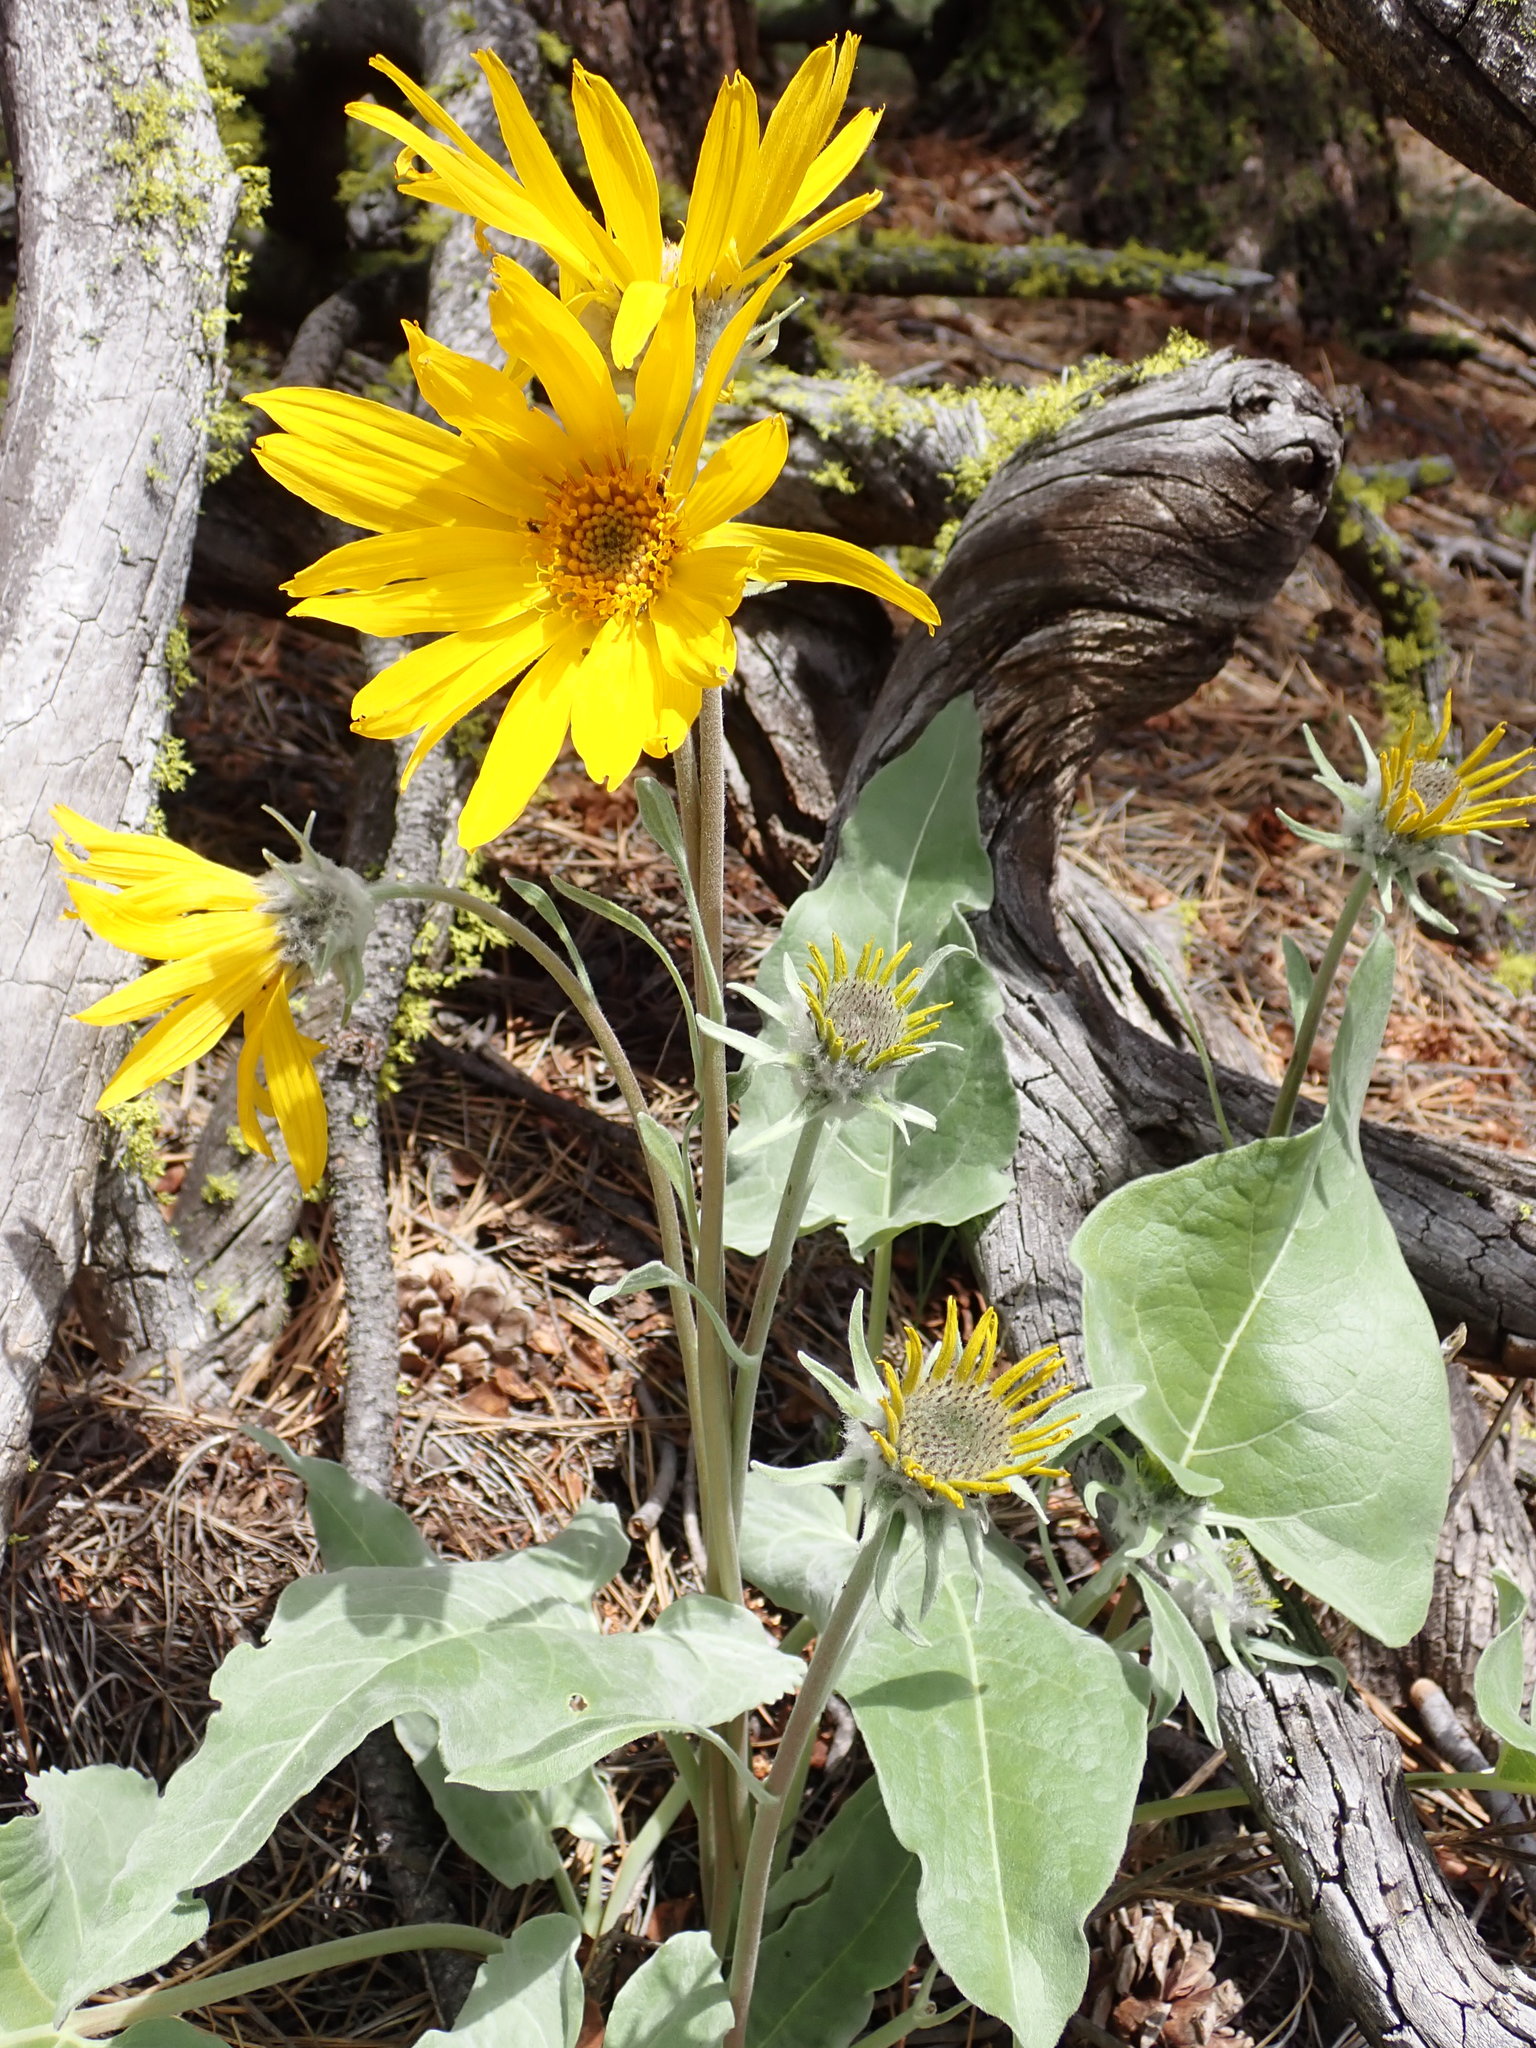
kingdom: Plantae
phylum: Tracheophyta
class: Magnoliopsida
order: Asterales
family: Asteraceae
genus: Wyethia
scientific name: Wyethia sagittata
